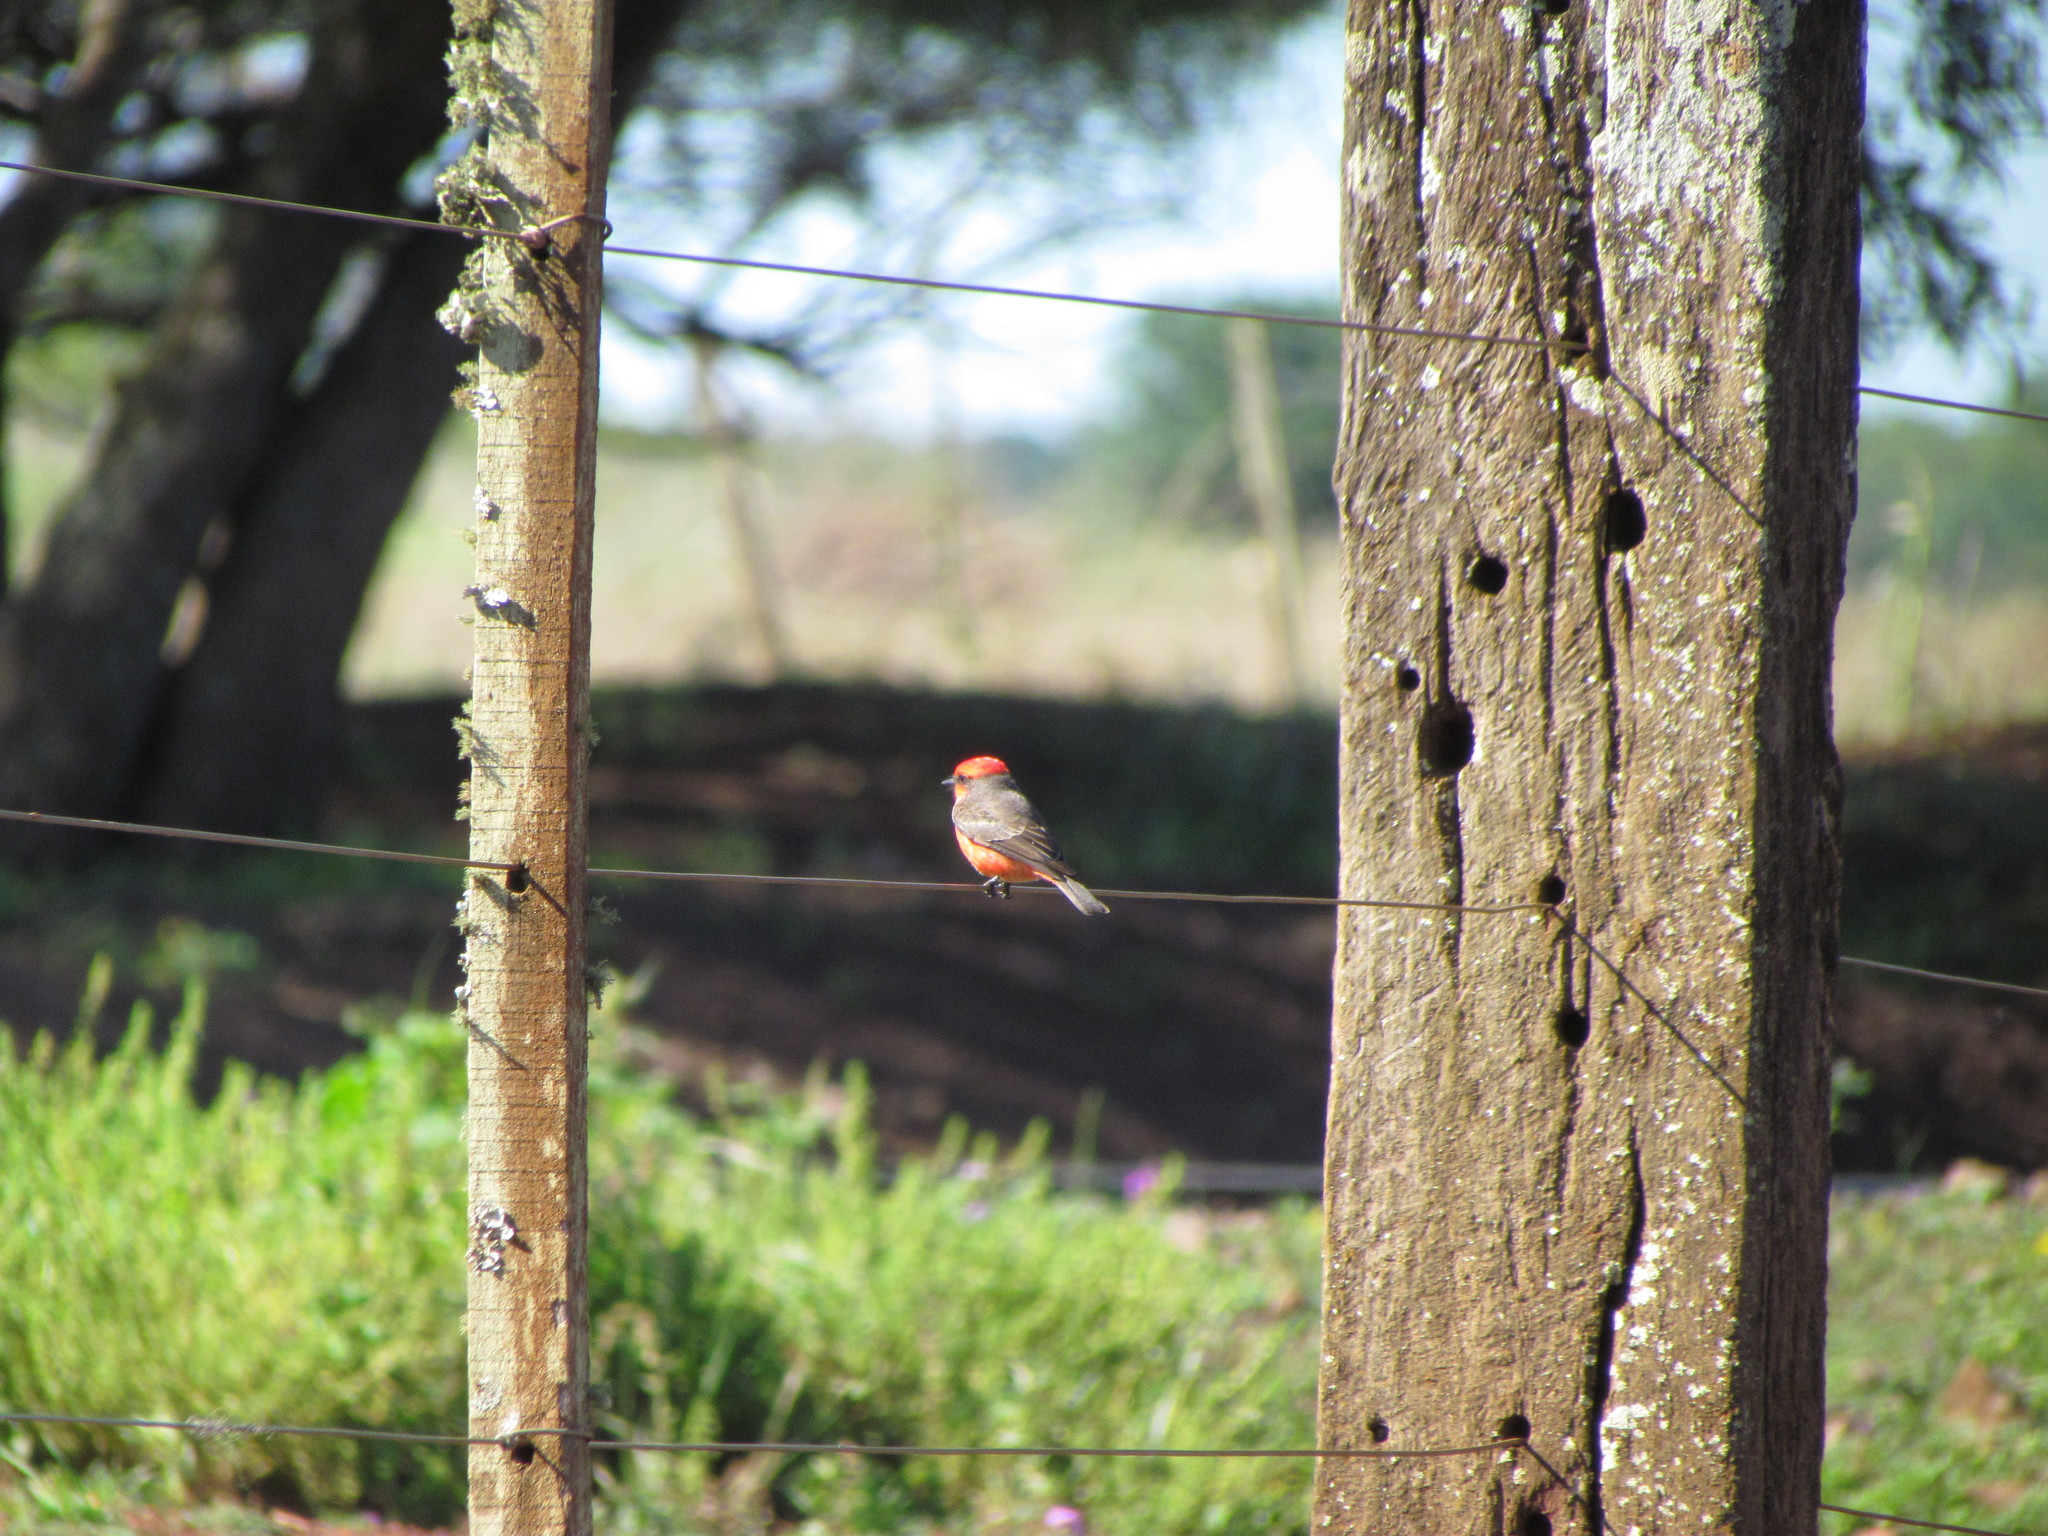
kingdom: Animalia
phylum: Chordata
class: Aves
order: Passeriformes
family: Tyrannidae
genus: Pyrocephalus
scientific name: Pyrocephalus rubinus
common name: Vermilion flycatcher
